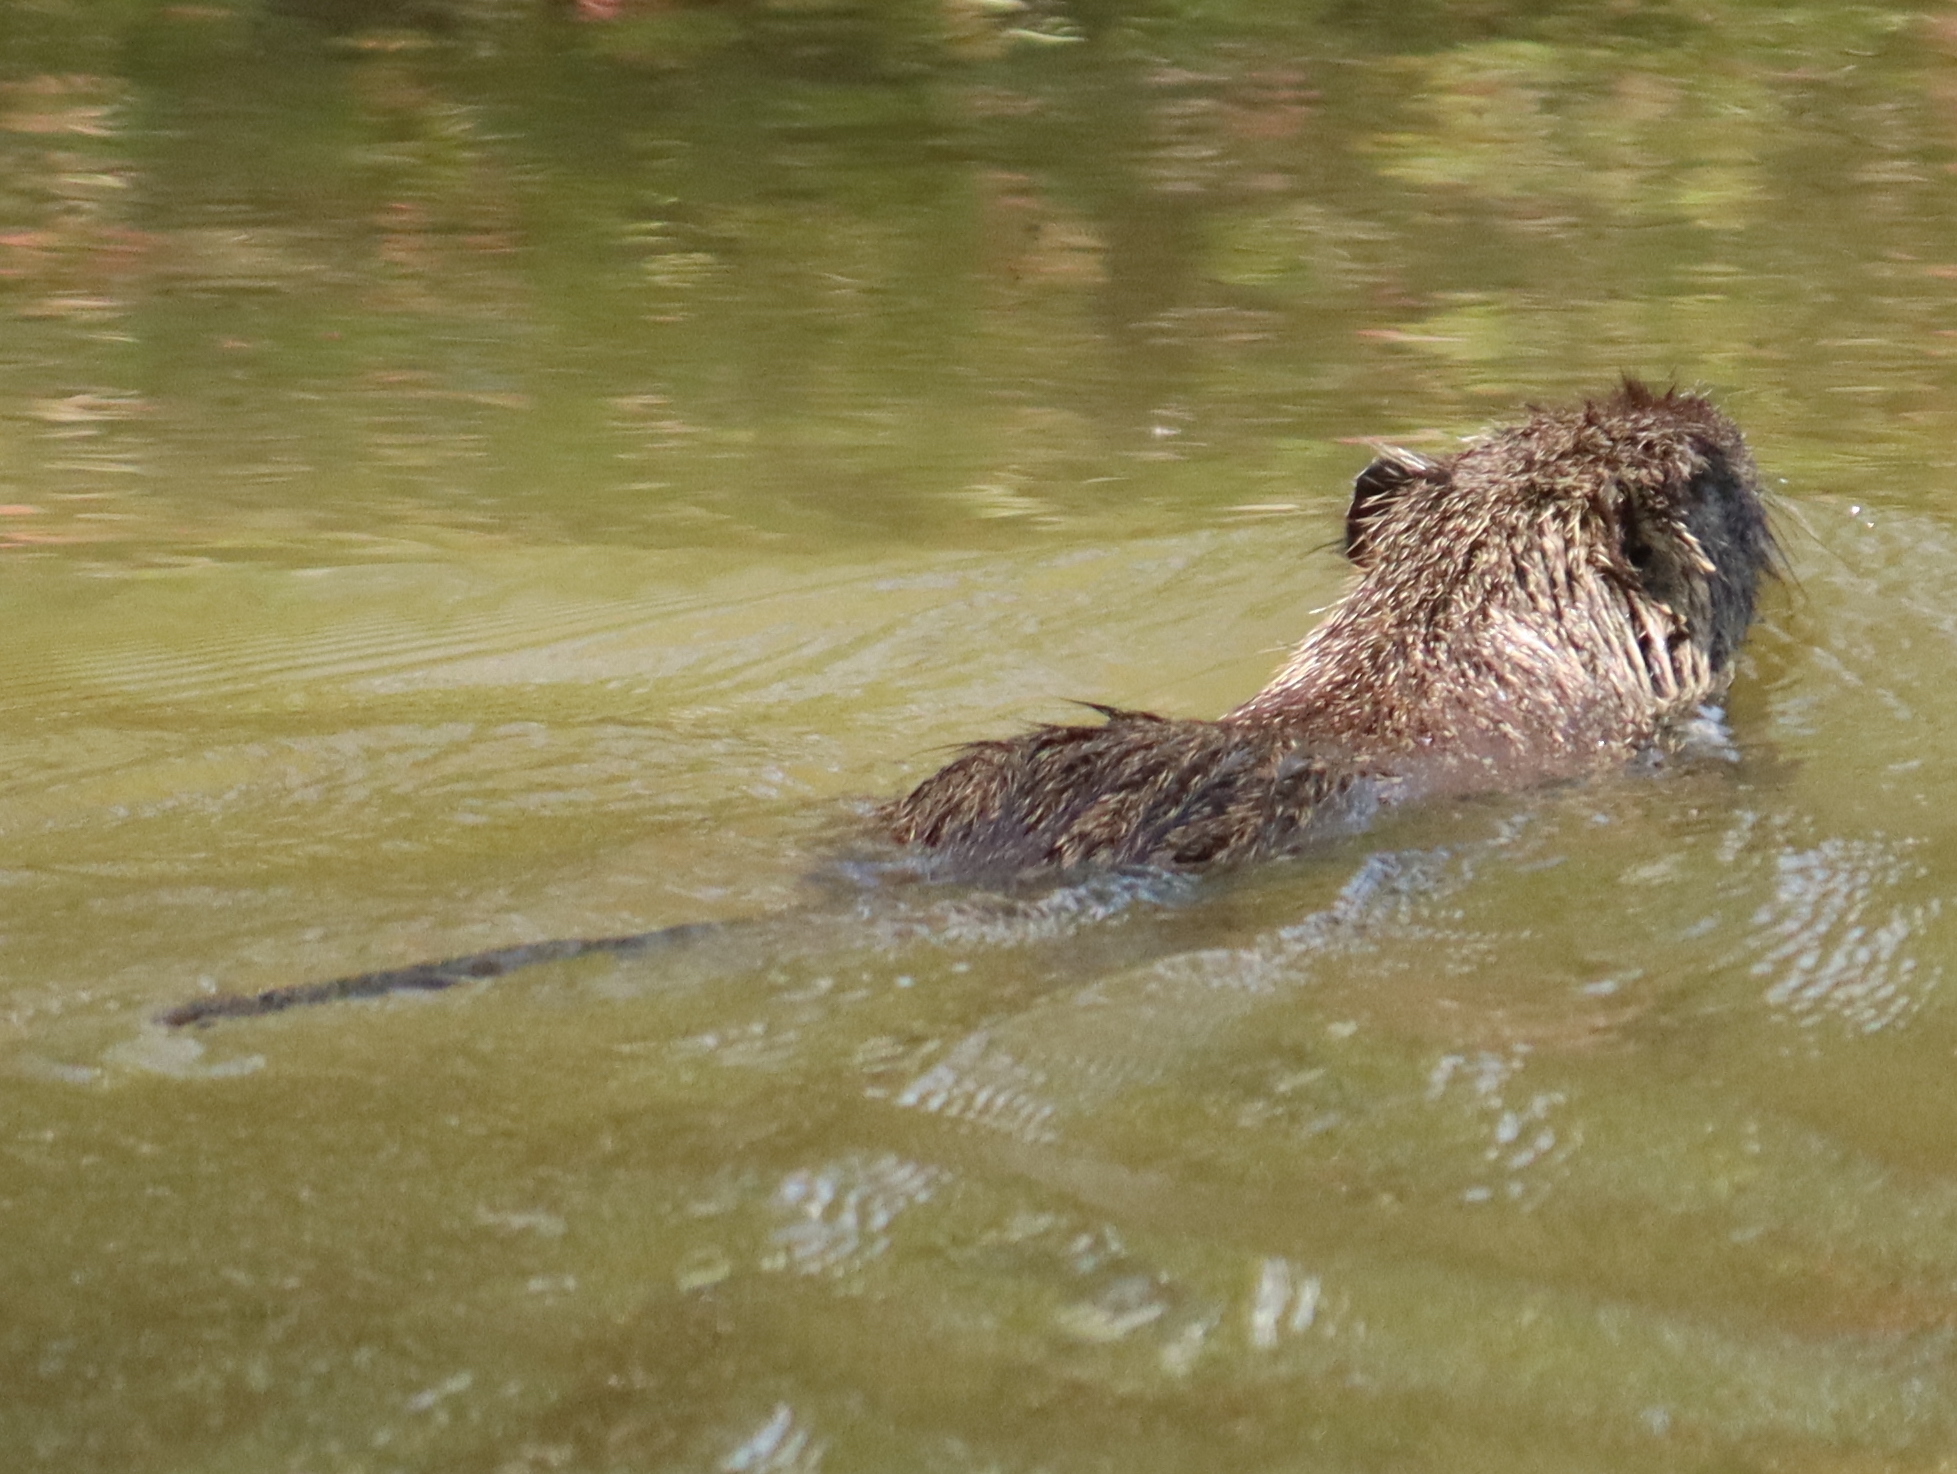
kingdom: Animalia
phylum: Chordata
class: Mammalia
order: Rodentia
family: Myocastoridae
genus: Myocastor
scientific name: Myocastor coypus
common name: Coypu
